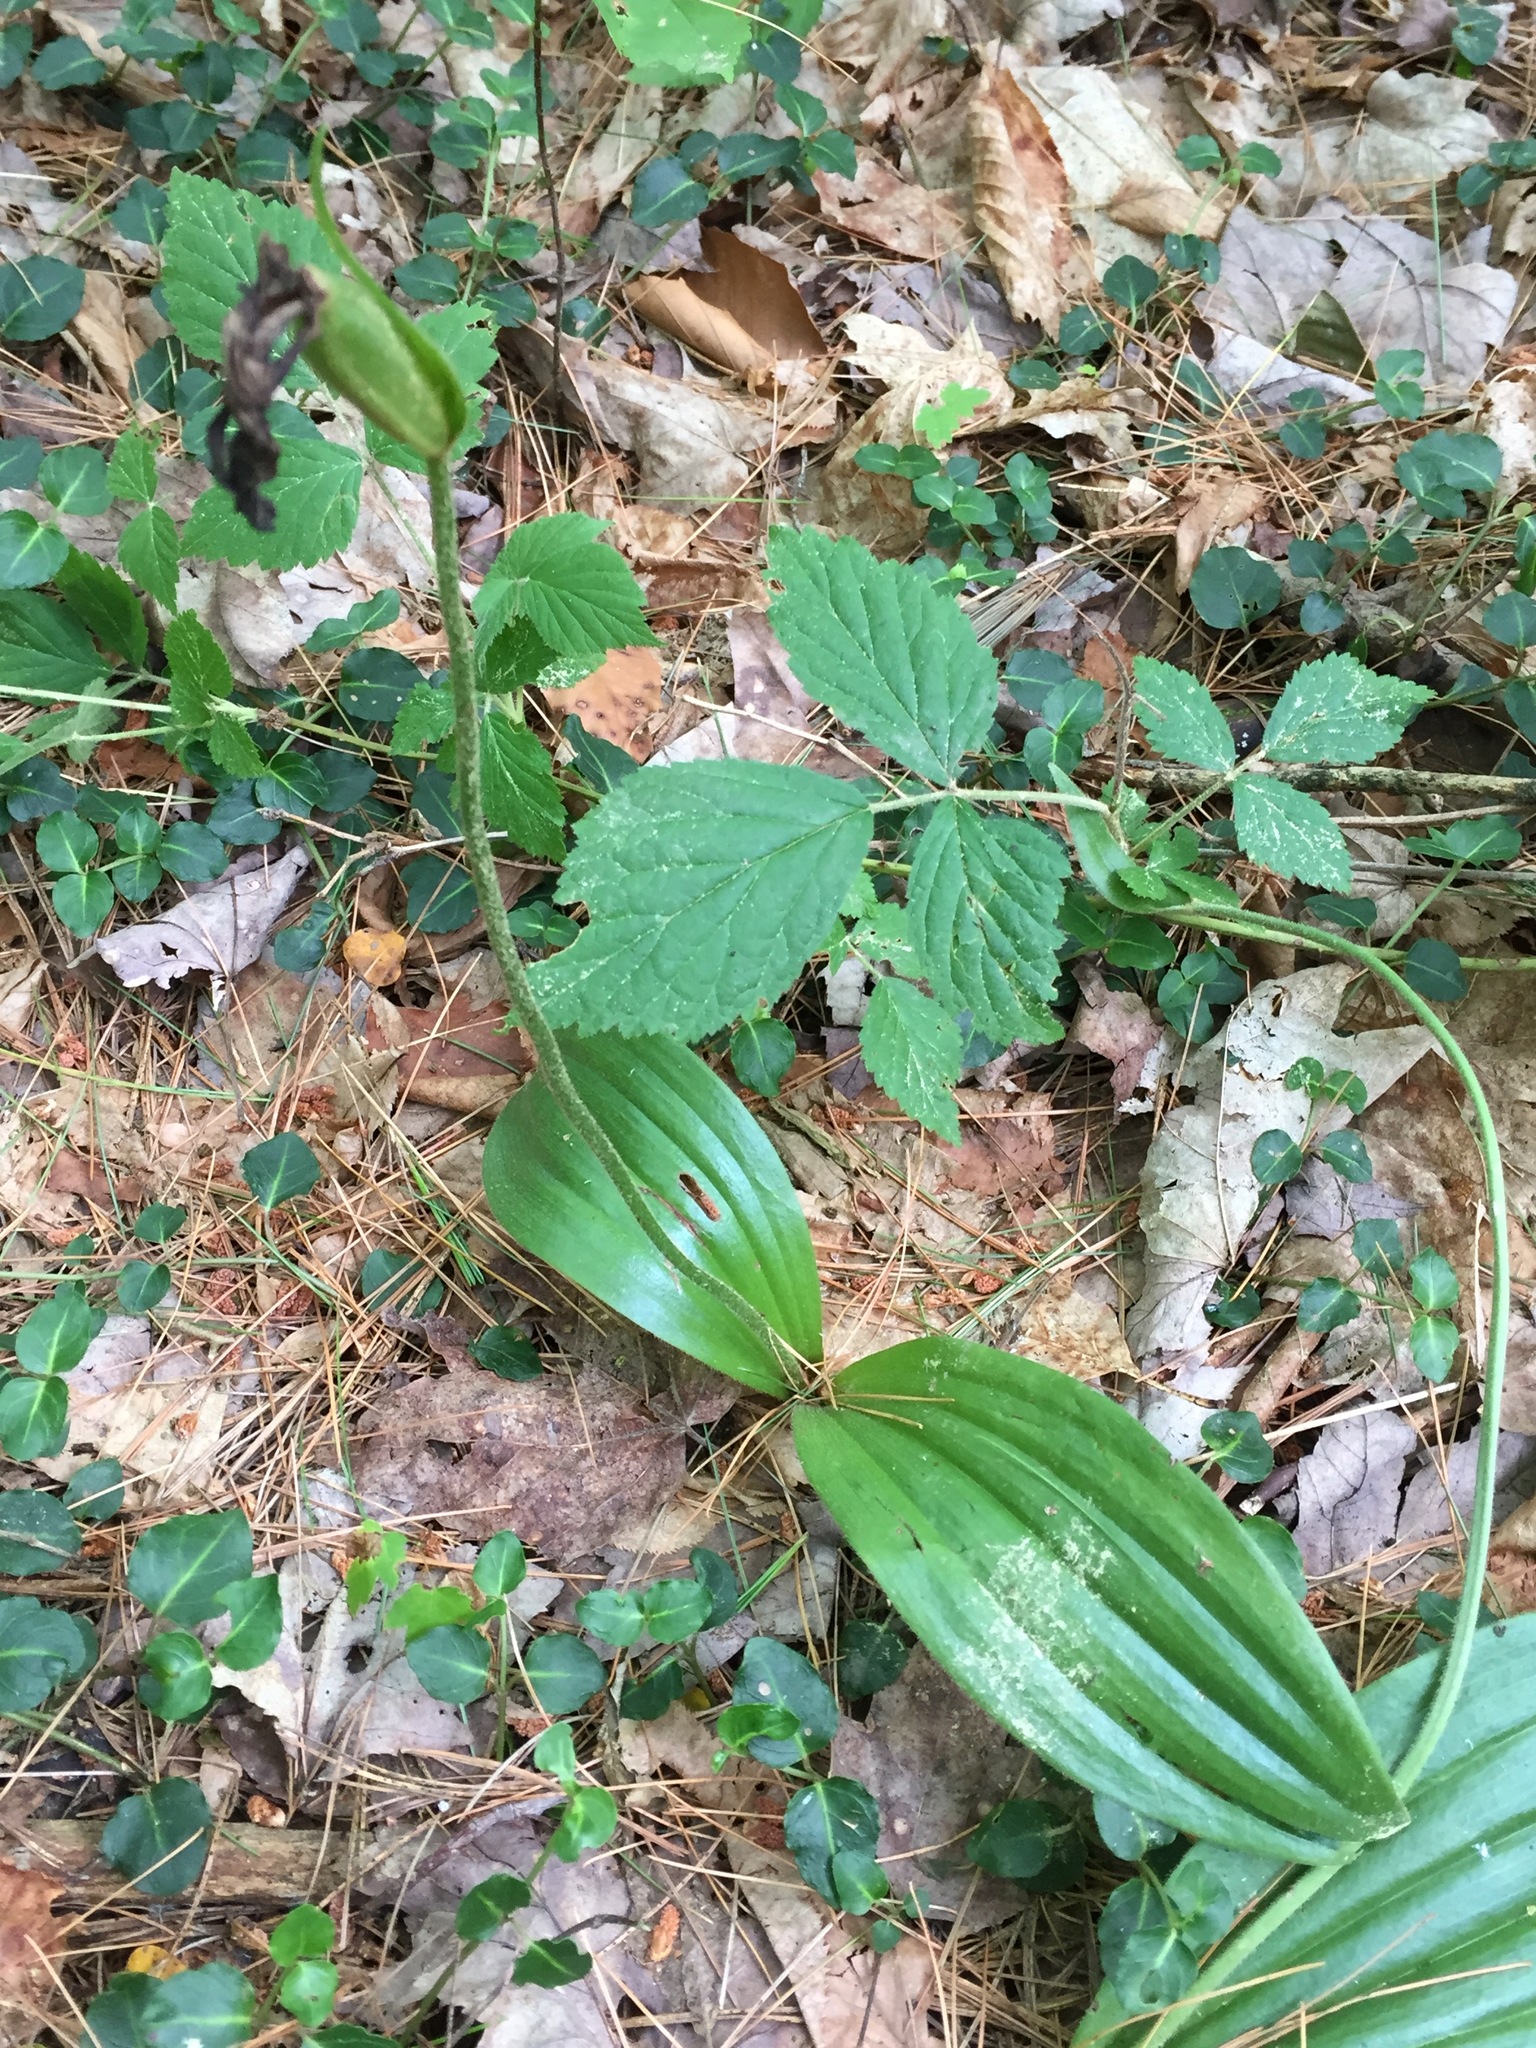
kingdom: Plantae
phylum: Tracheophyta
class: Liliopsida
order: Asparagales
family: Orchidaceae
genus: Cypripedium
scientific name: Cypripedium acaule
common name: Pink lady's-slipper
